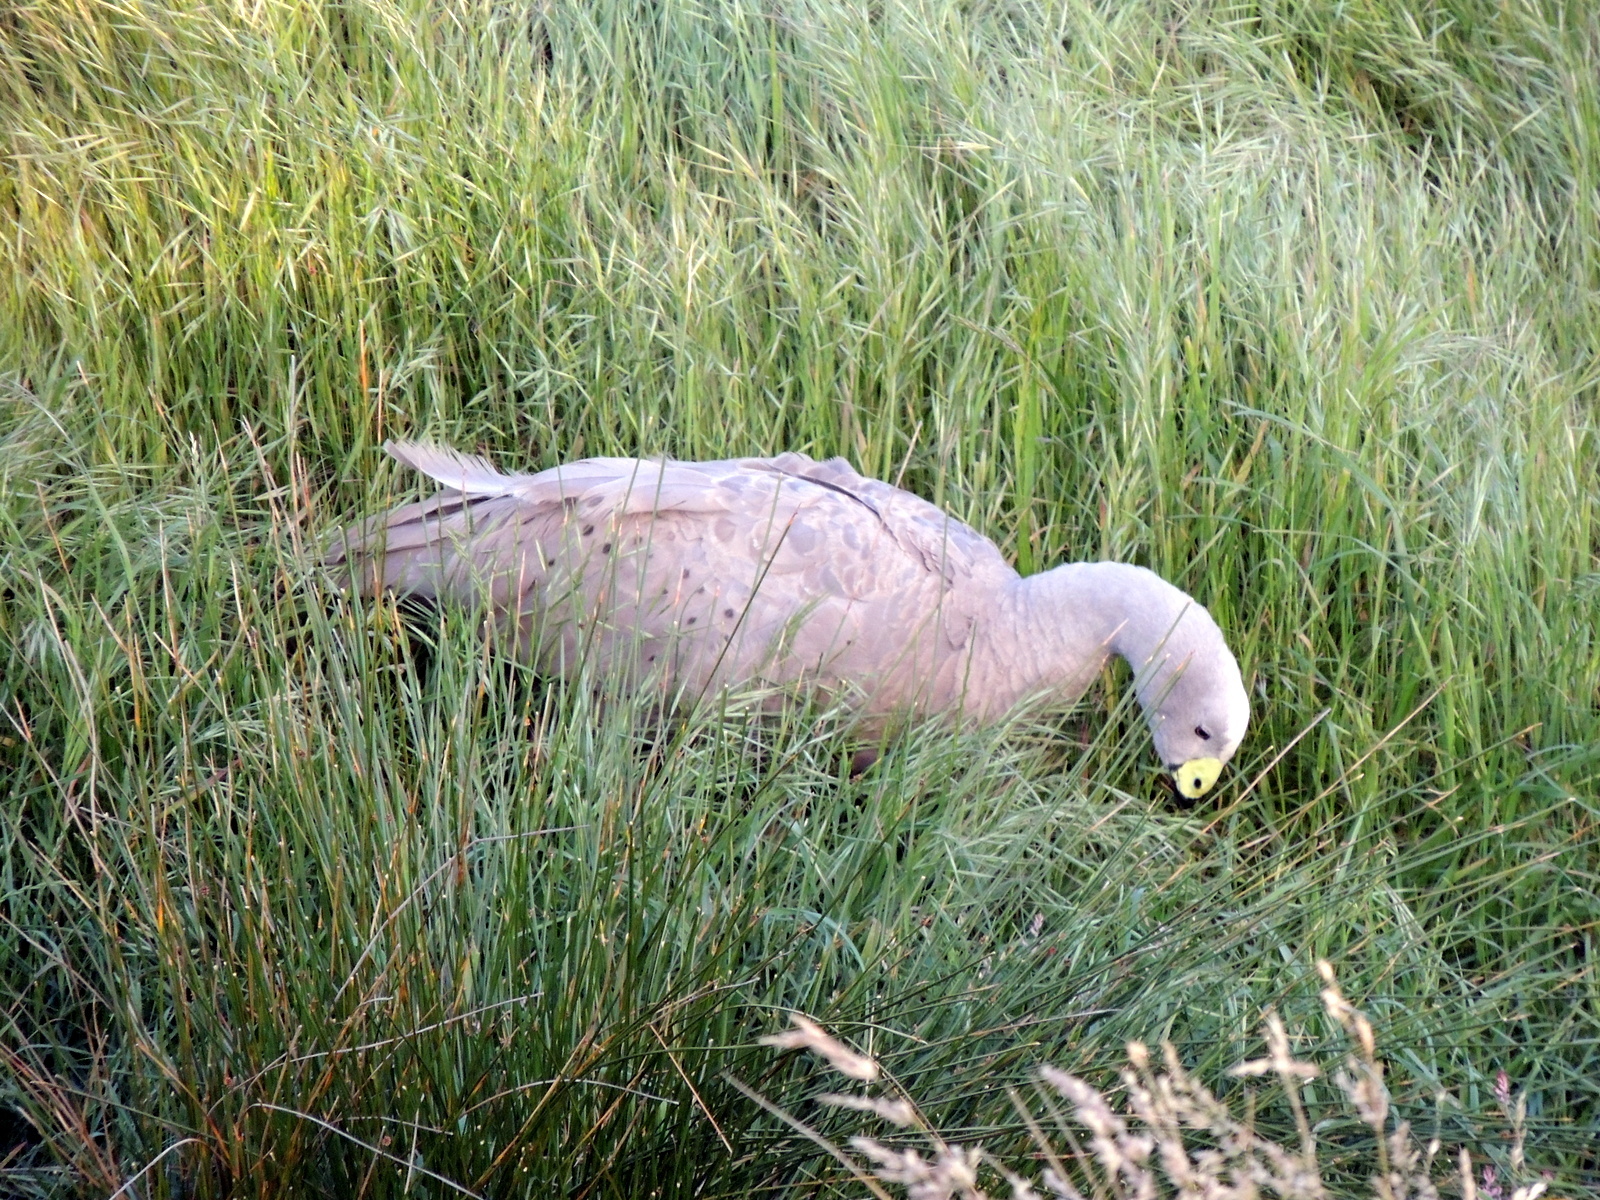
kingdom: Animalia
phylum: Chordata
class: Aves
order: Anseriformes
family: Anatidae
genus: Cereopsis
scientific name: Cereopsis novaehollandiae
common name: Cape barren goose
